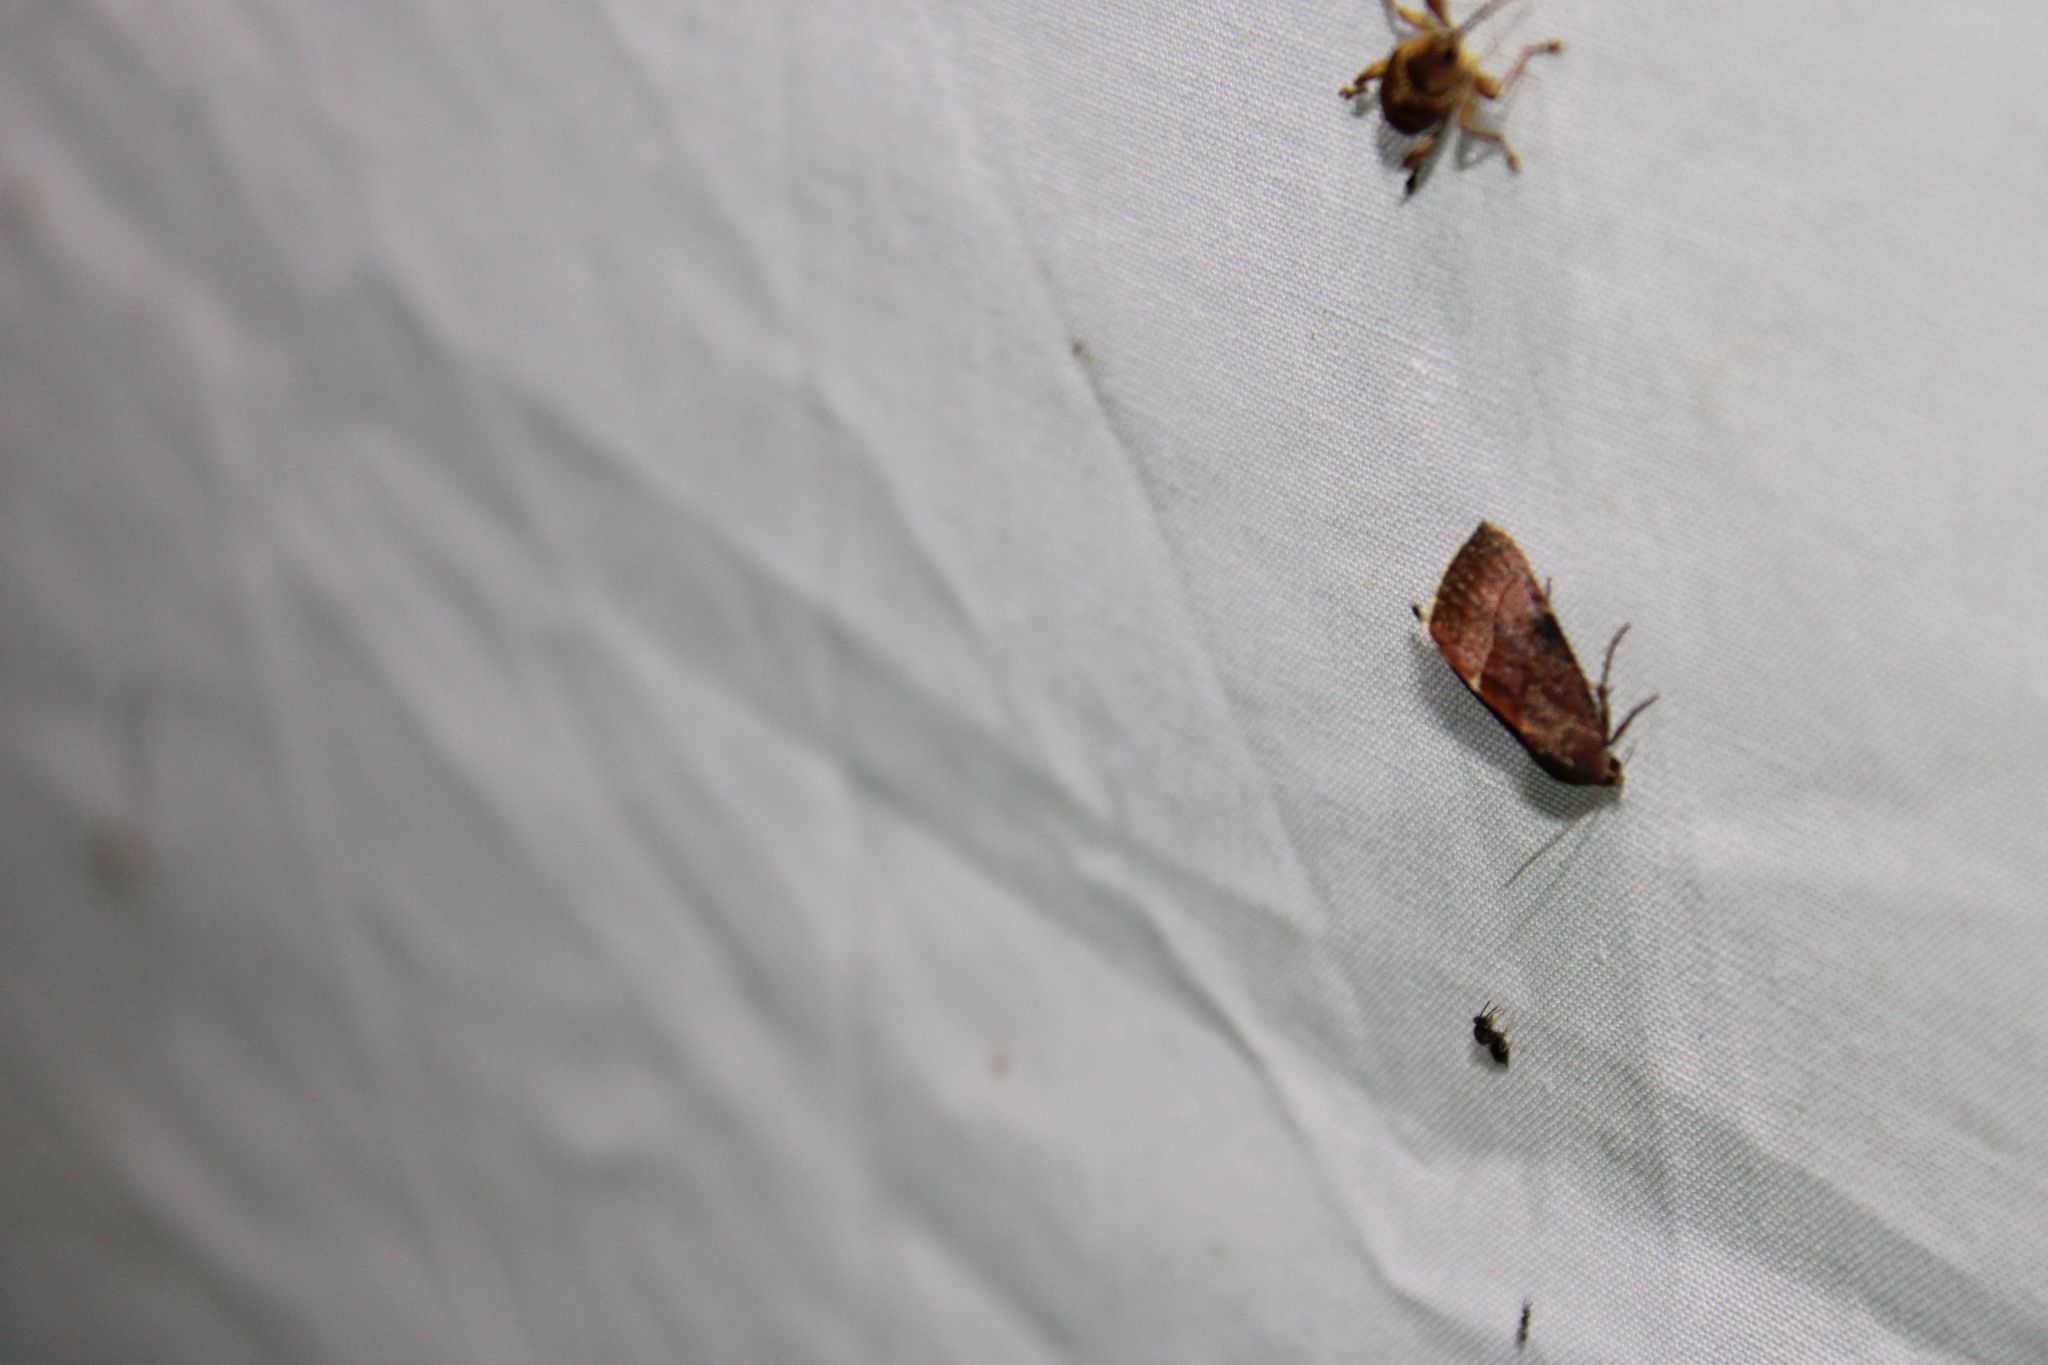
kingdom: Animalia
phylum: Arthropoda
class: Insecta
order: Lepidoptera
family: Noctuidae
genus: Galgula
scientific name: Galgula partita
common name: Wedgeling
